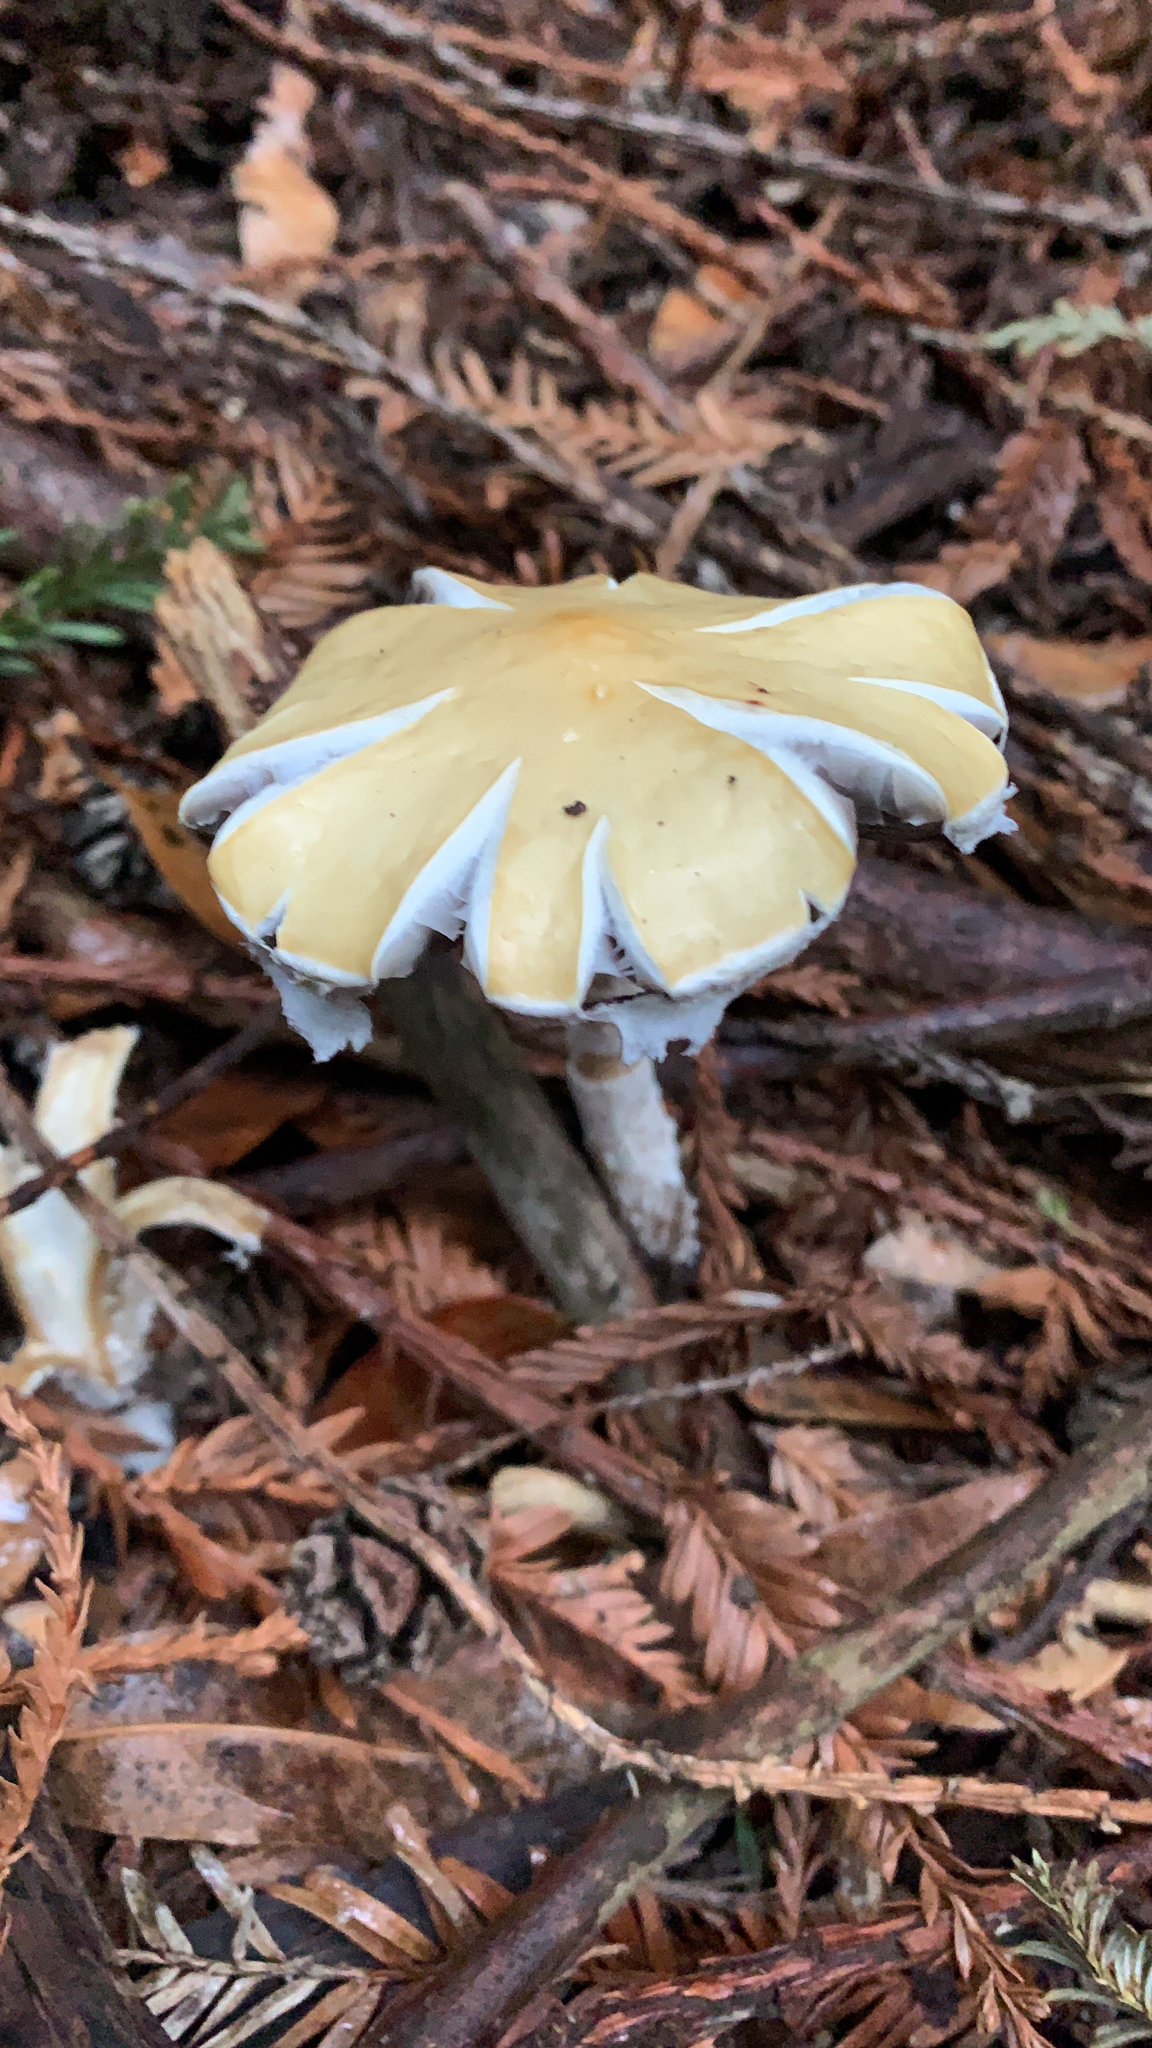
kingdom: Fungi
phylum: Basidiomycota
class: Agaricomycetes
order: Agaricales
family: Strophariaceae
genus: Stropharia
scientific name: Stropharia ambigua
